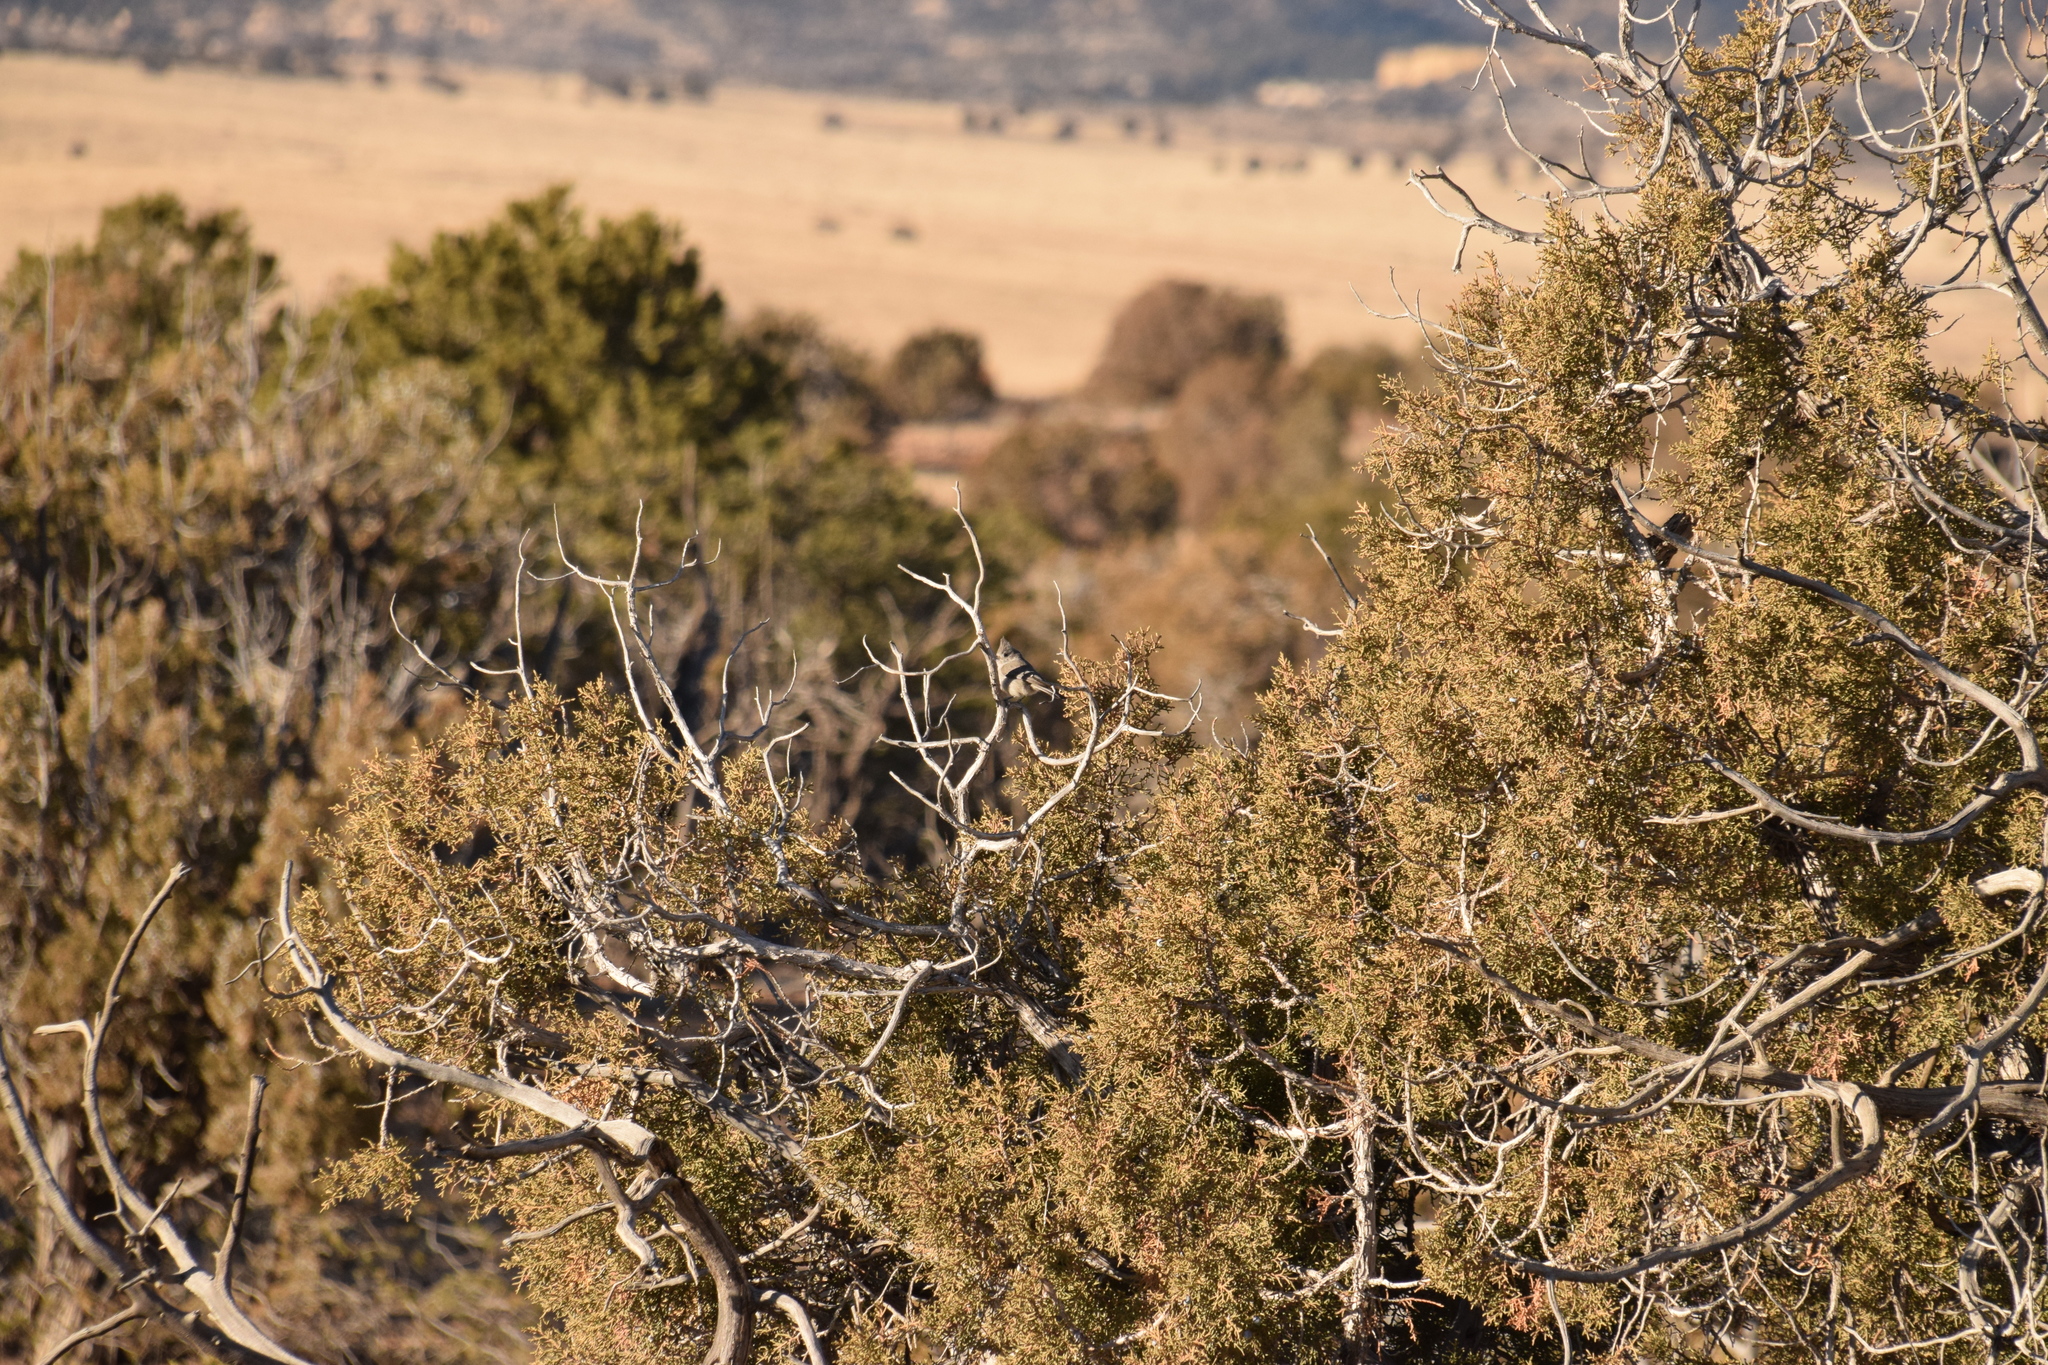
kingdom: Animalia
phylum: Chordata
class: Aves
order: Passeriformes
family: Paridae
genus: Baeolophus
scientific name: Baeolophus ridgwayi
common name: Juniper titmouse
